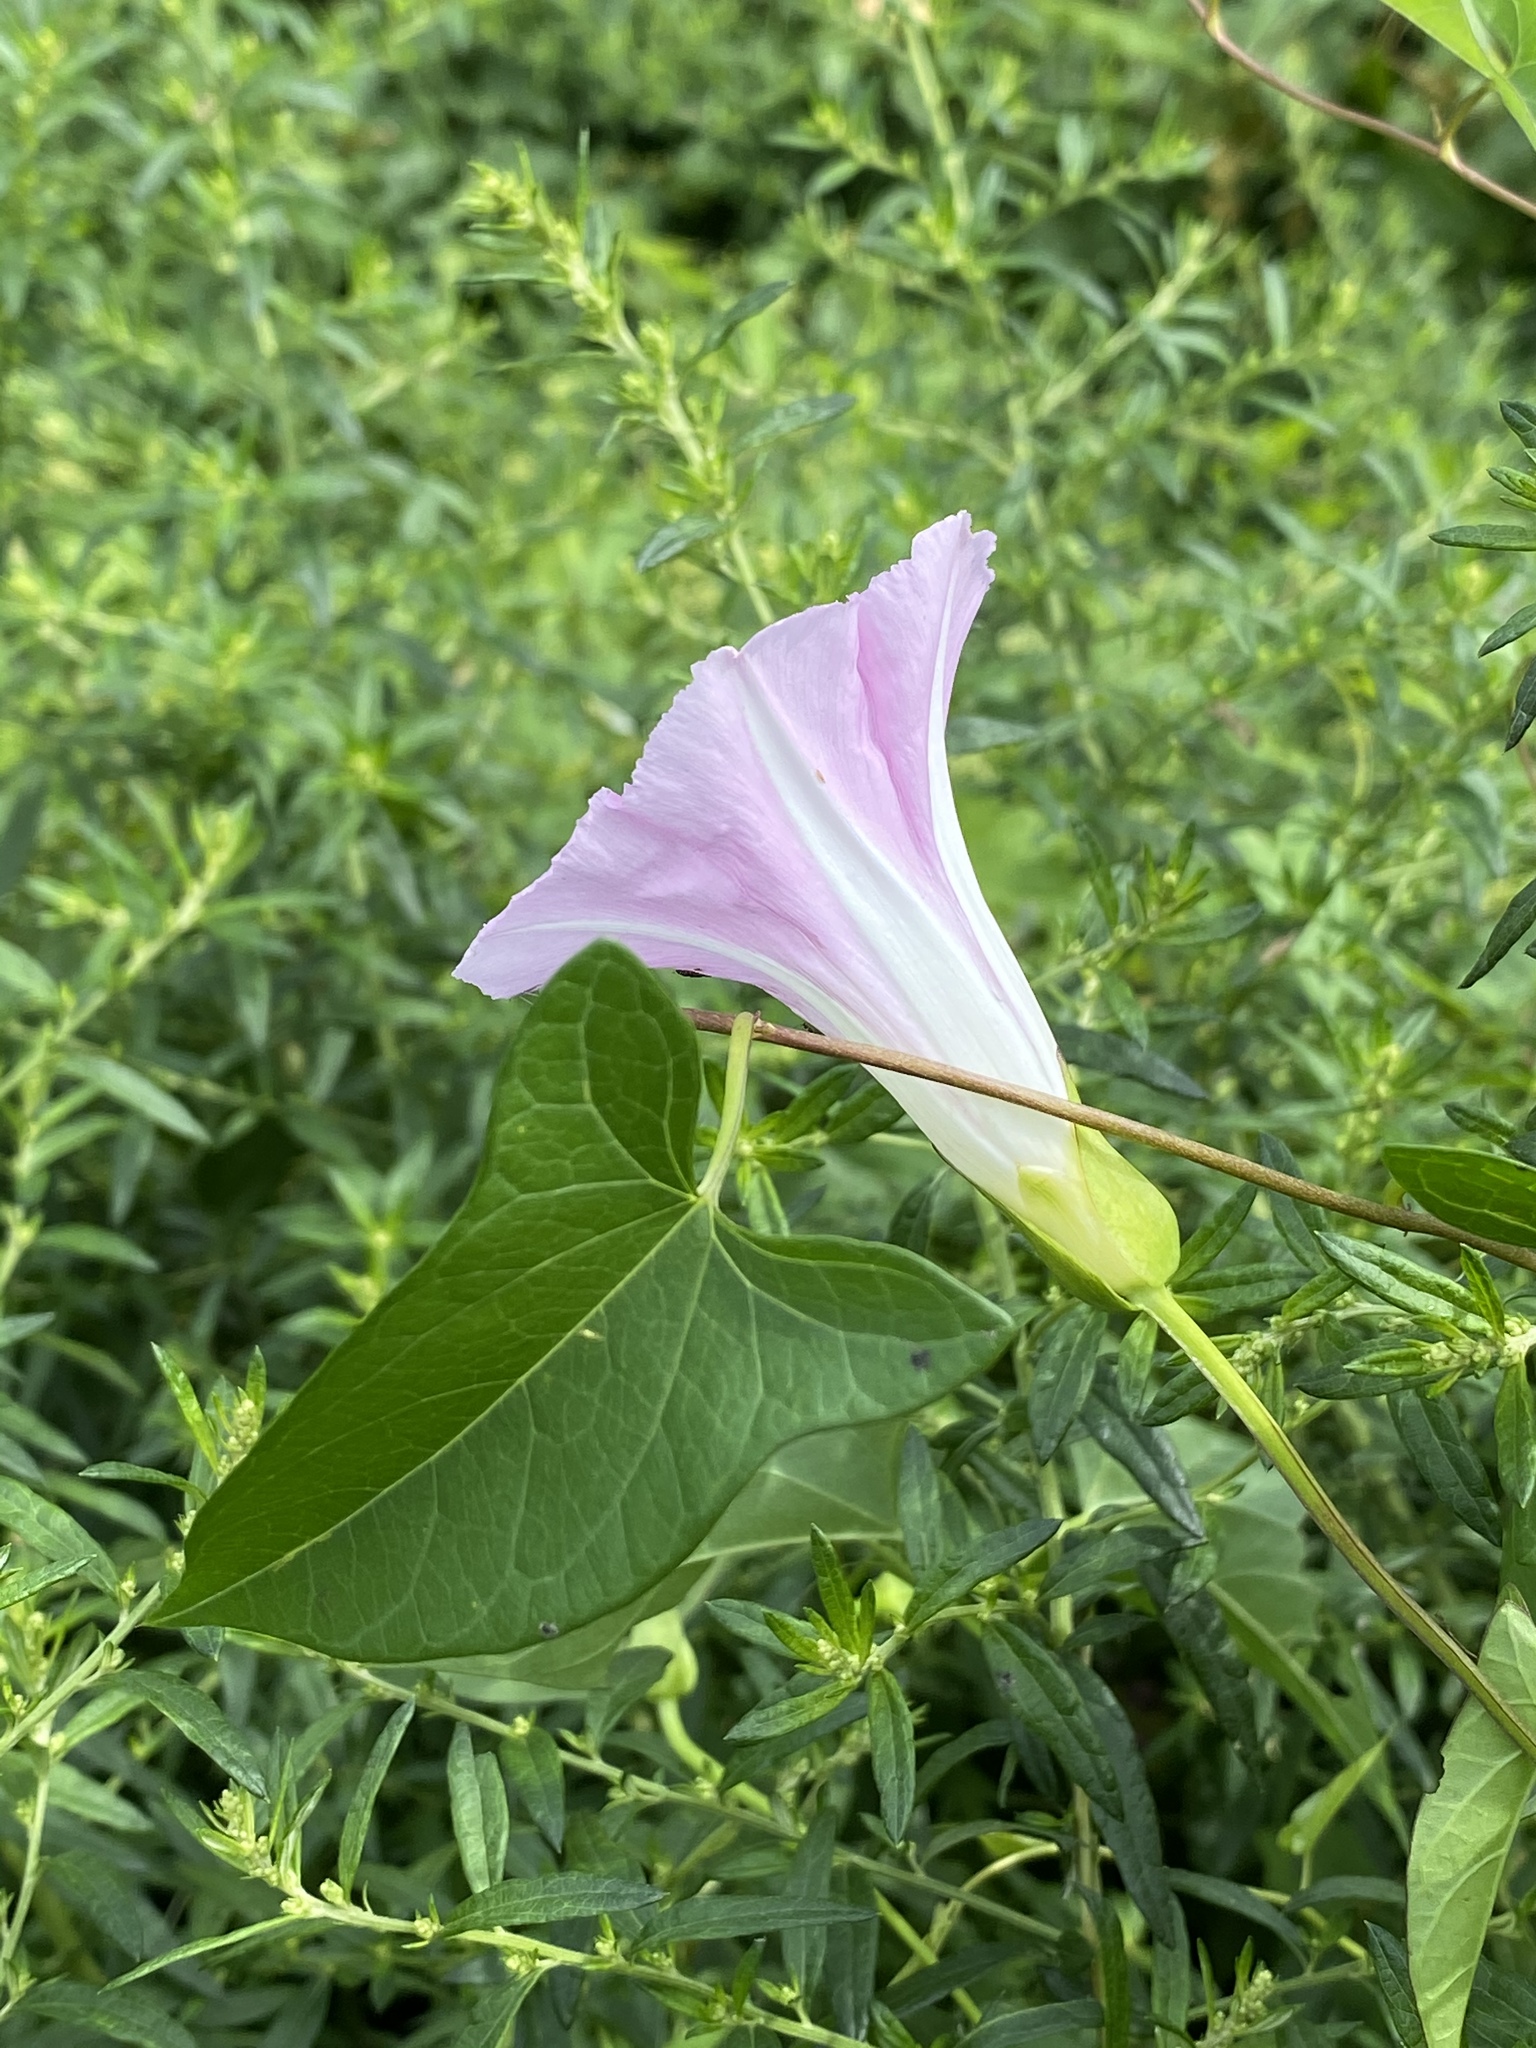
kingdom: Plantae
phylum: Tracheophyta
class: Magnoliopsida
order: Solanales
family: Convolvulaceae
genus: Calystegia
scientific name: Calystegia sepium
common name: Hedge bindweed
